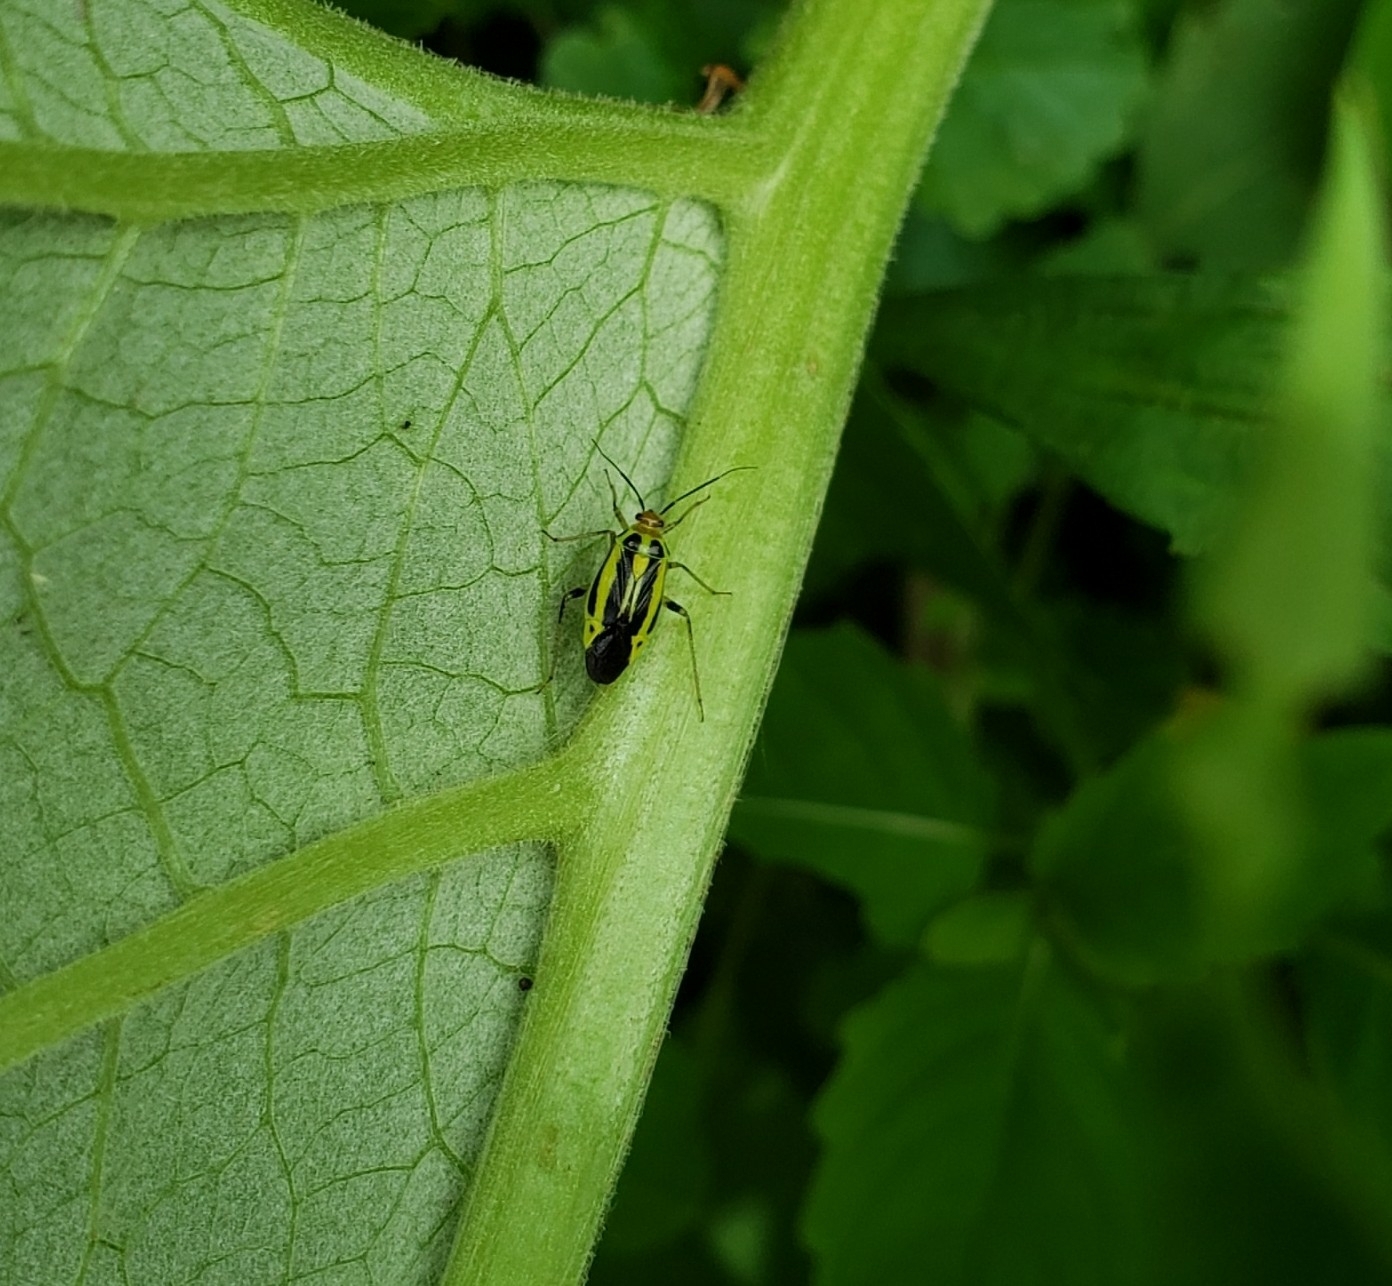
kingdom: Animalia
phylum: Arthropoda
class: Insecta
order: Hemiptera
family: Miridae
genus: Poecilocapsus
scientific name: Poecilocapsus lineatus
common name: Four-lined plant bug
